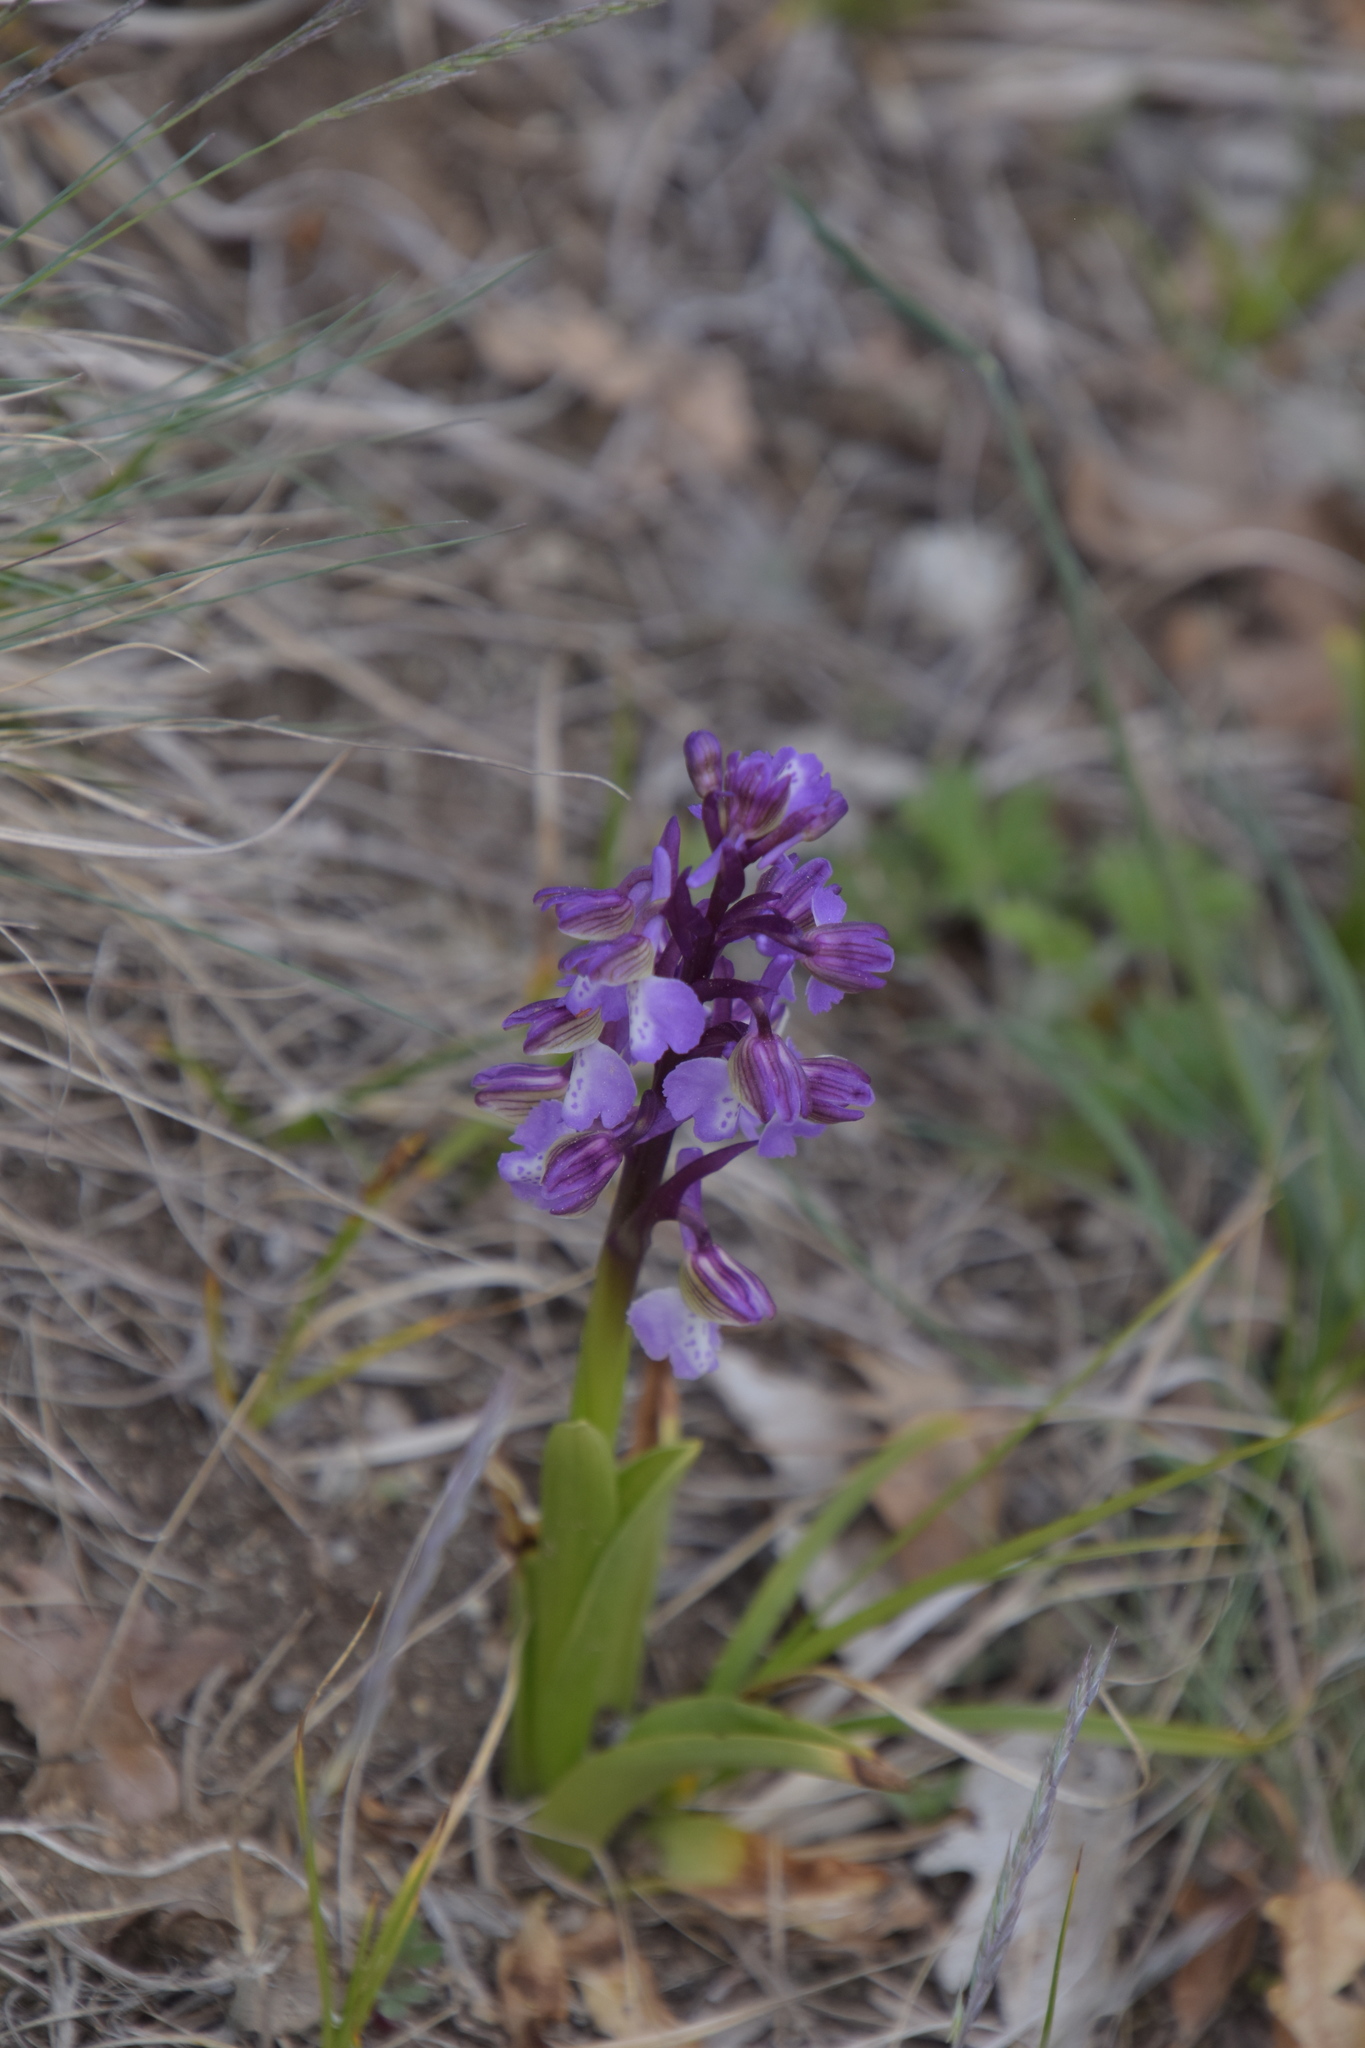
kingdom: Plantae
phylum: Tracheophyta
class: Liliopsida
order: Asparagales
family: Orchidaceae
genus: Anacamptis
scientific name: Anacamptis morio
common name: Green-winged orchid
